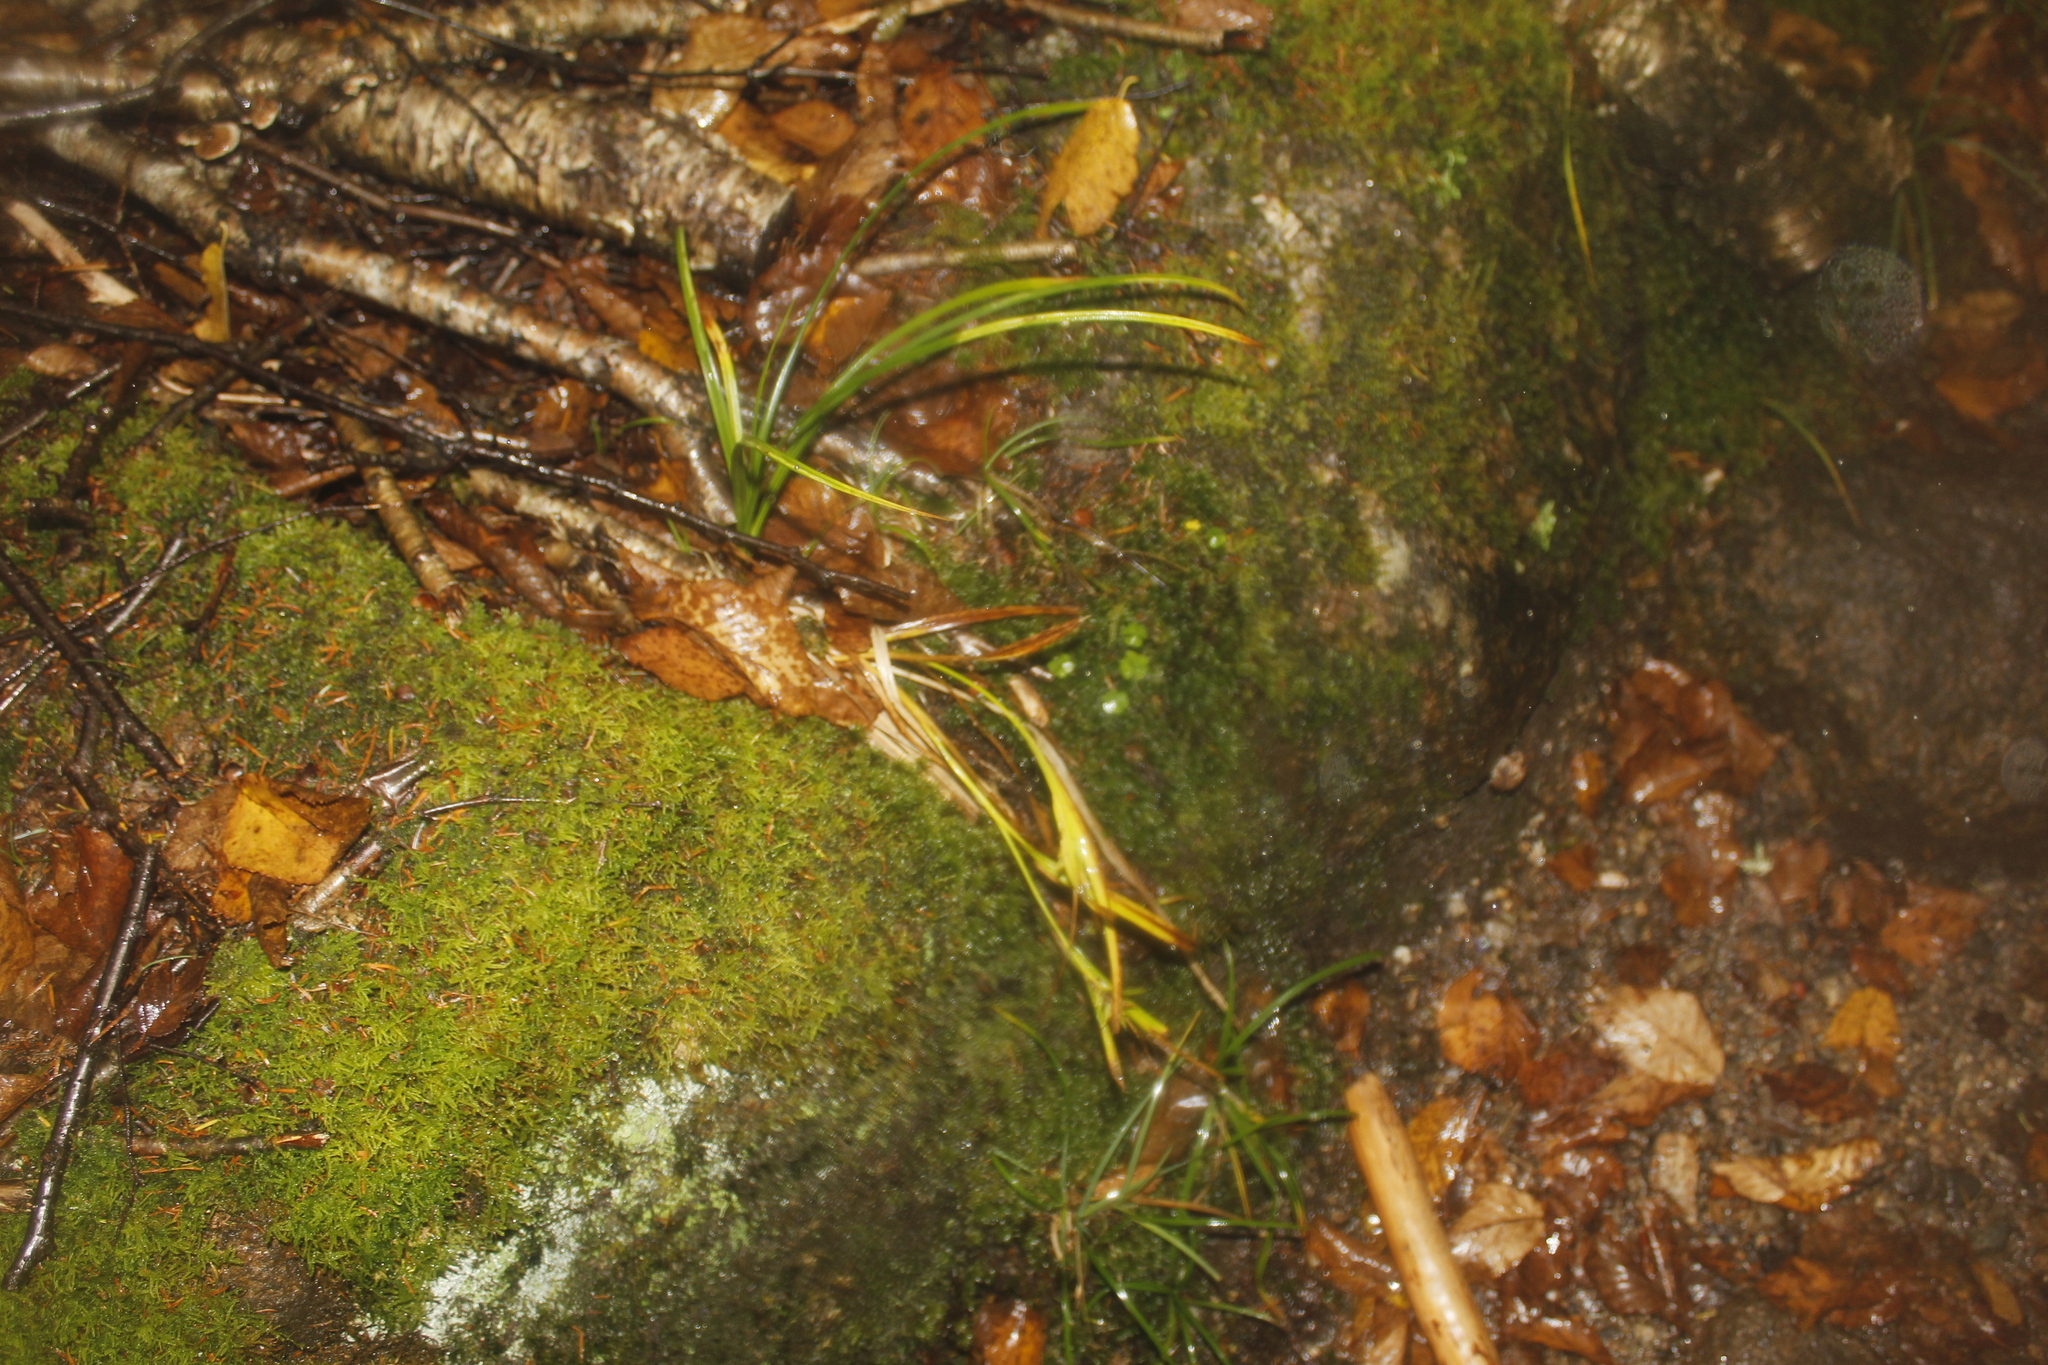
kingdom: Plantae
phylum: Tracheophyta
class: Liliopsida
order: Poales
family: Cyperaceae
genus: Carex
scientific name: Carex intumescens
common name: Greater bladder sedge
